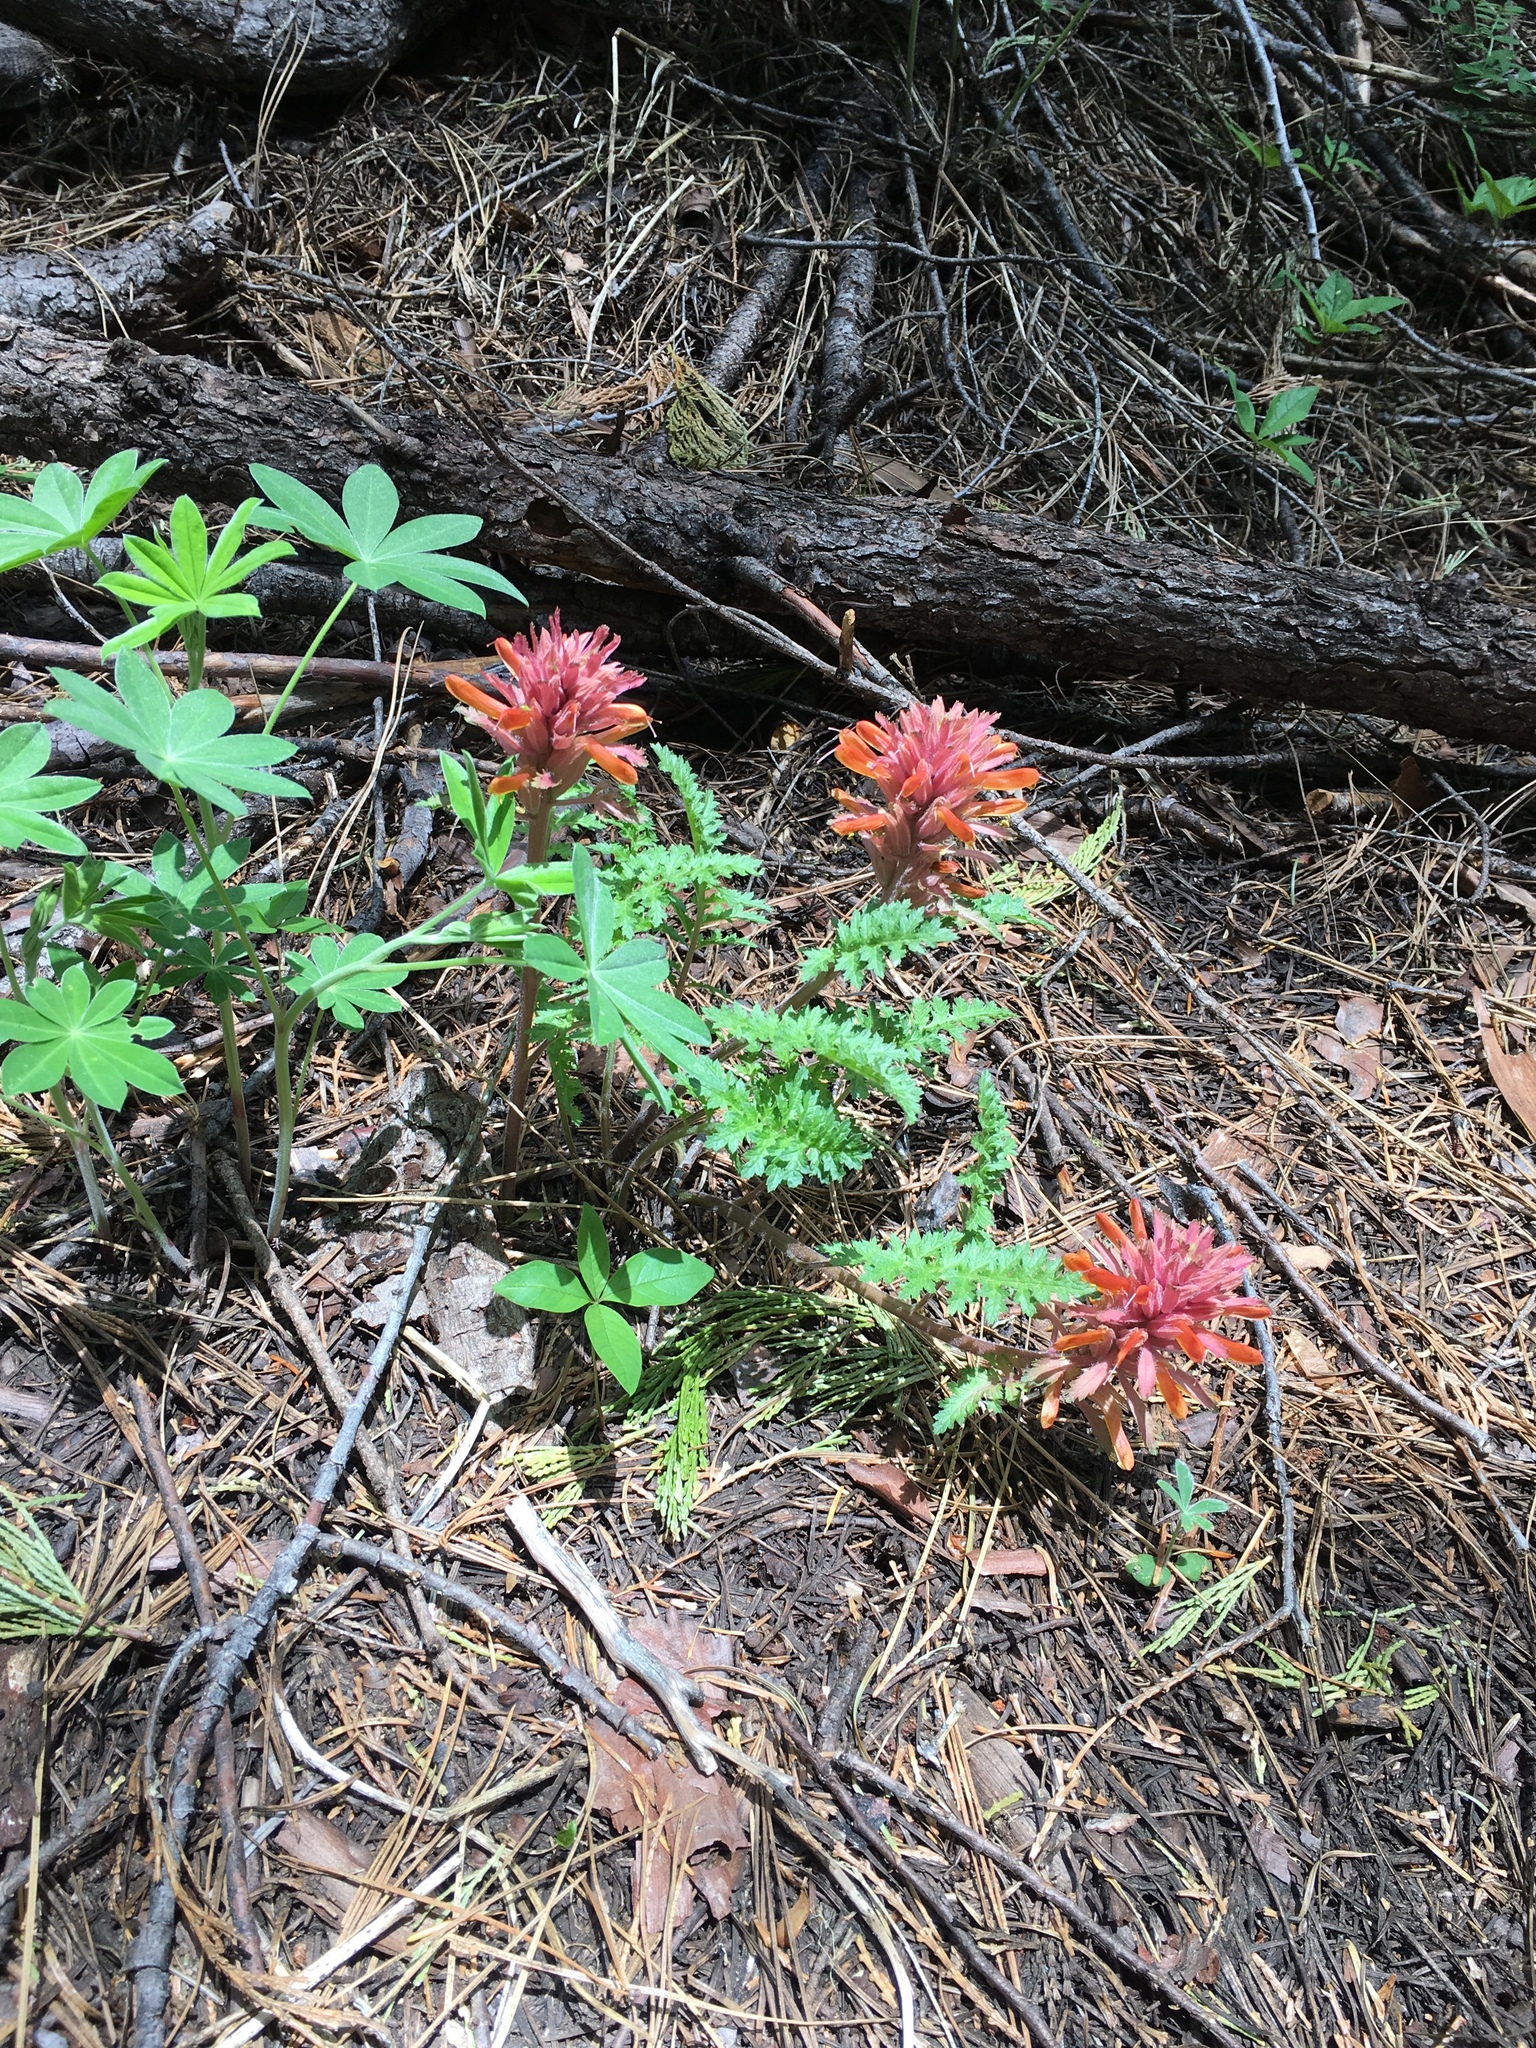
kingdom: Plantae
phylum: Tracheophyta
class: Magnoliopsida
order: Lamiales
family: Orobanchaceae
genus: Pedicularis
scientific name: Pedicularis densiflora
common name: Indian warrior
